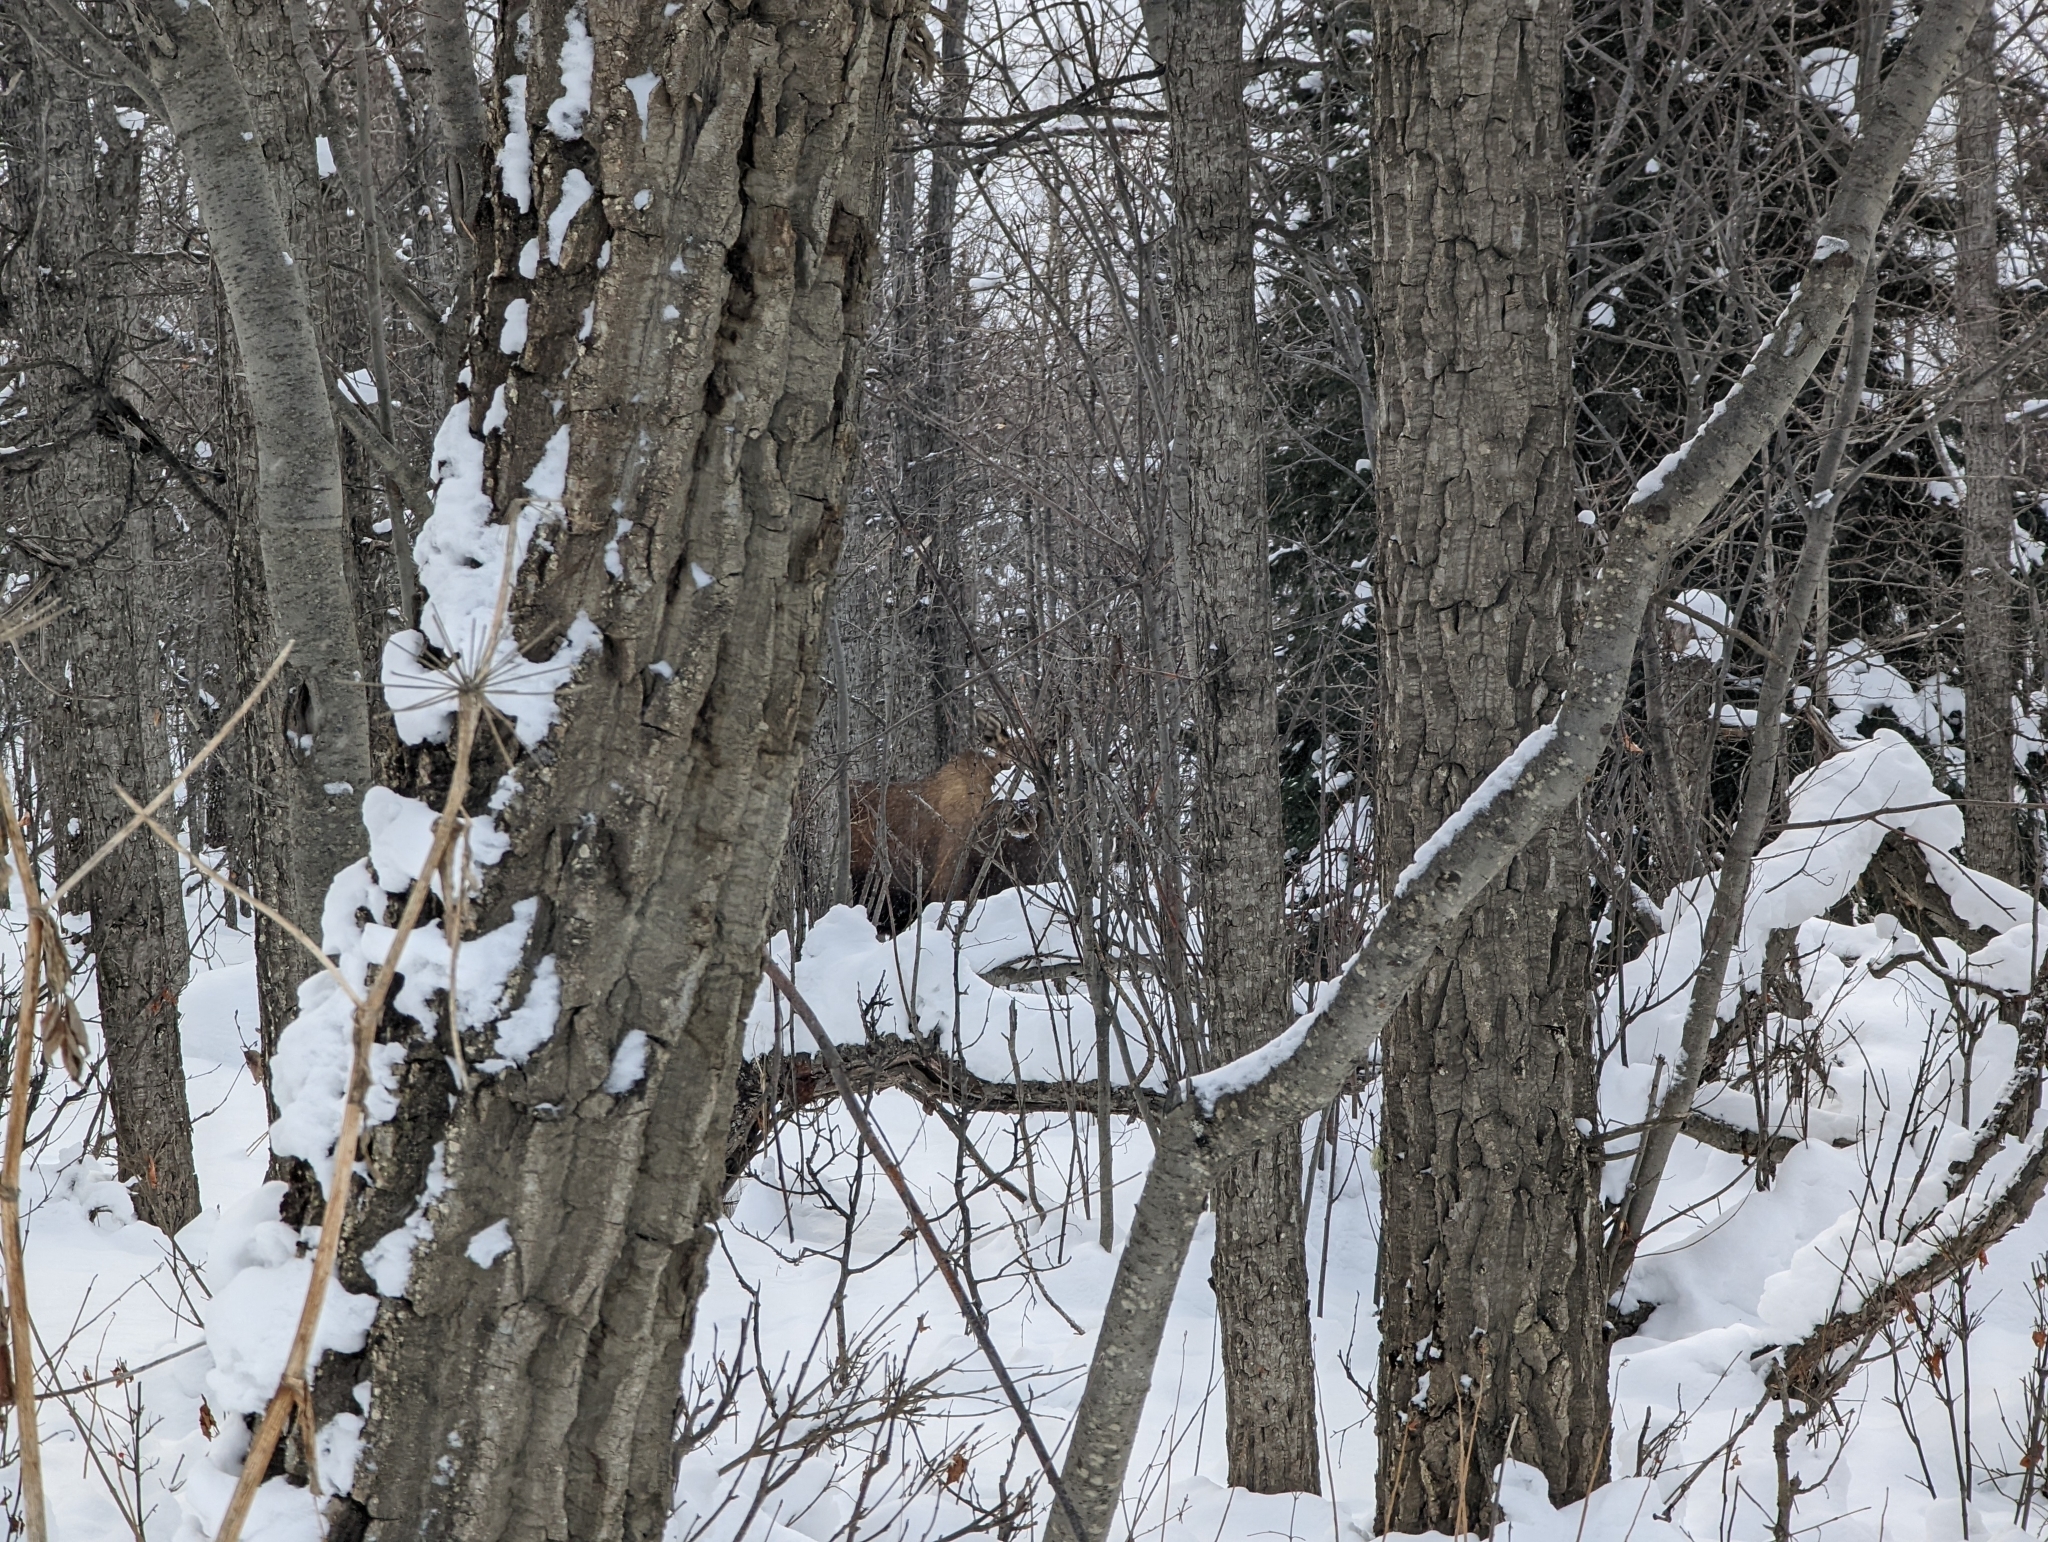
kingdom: Animalia
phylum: Chordata
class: Mammalia
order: Artiodactyla
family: Cervidae
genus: Alces
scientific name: Alces alces
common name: Moose
